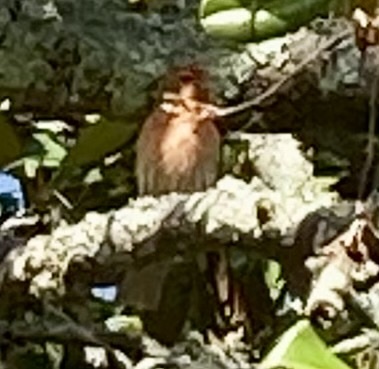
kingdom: Animalia
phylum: Chordata
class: Aves
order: Passeriformes
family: Fringillidae
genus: Haemorhous
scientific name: Haemorhous mexicanus
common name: House finch
